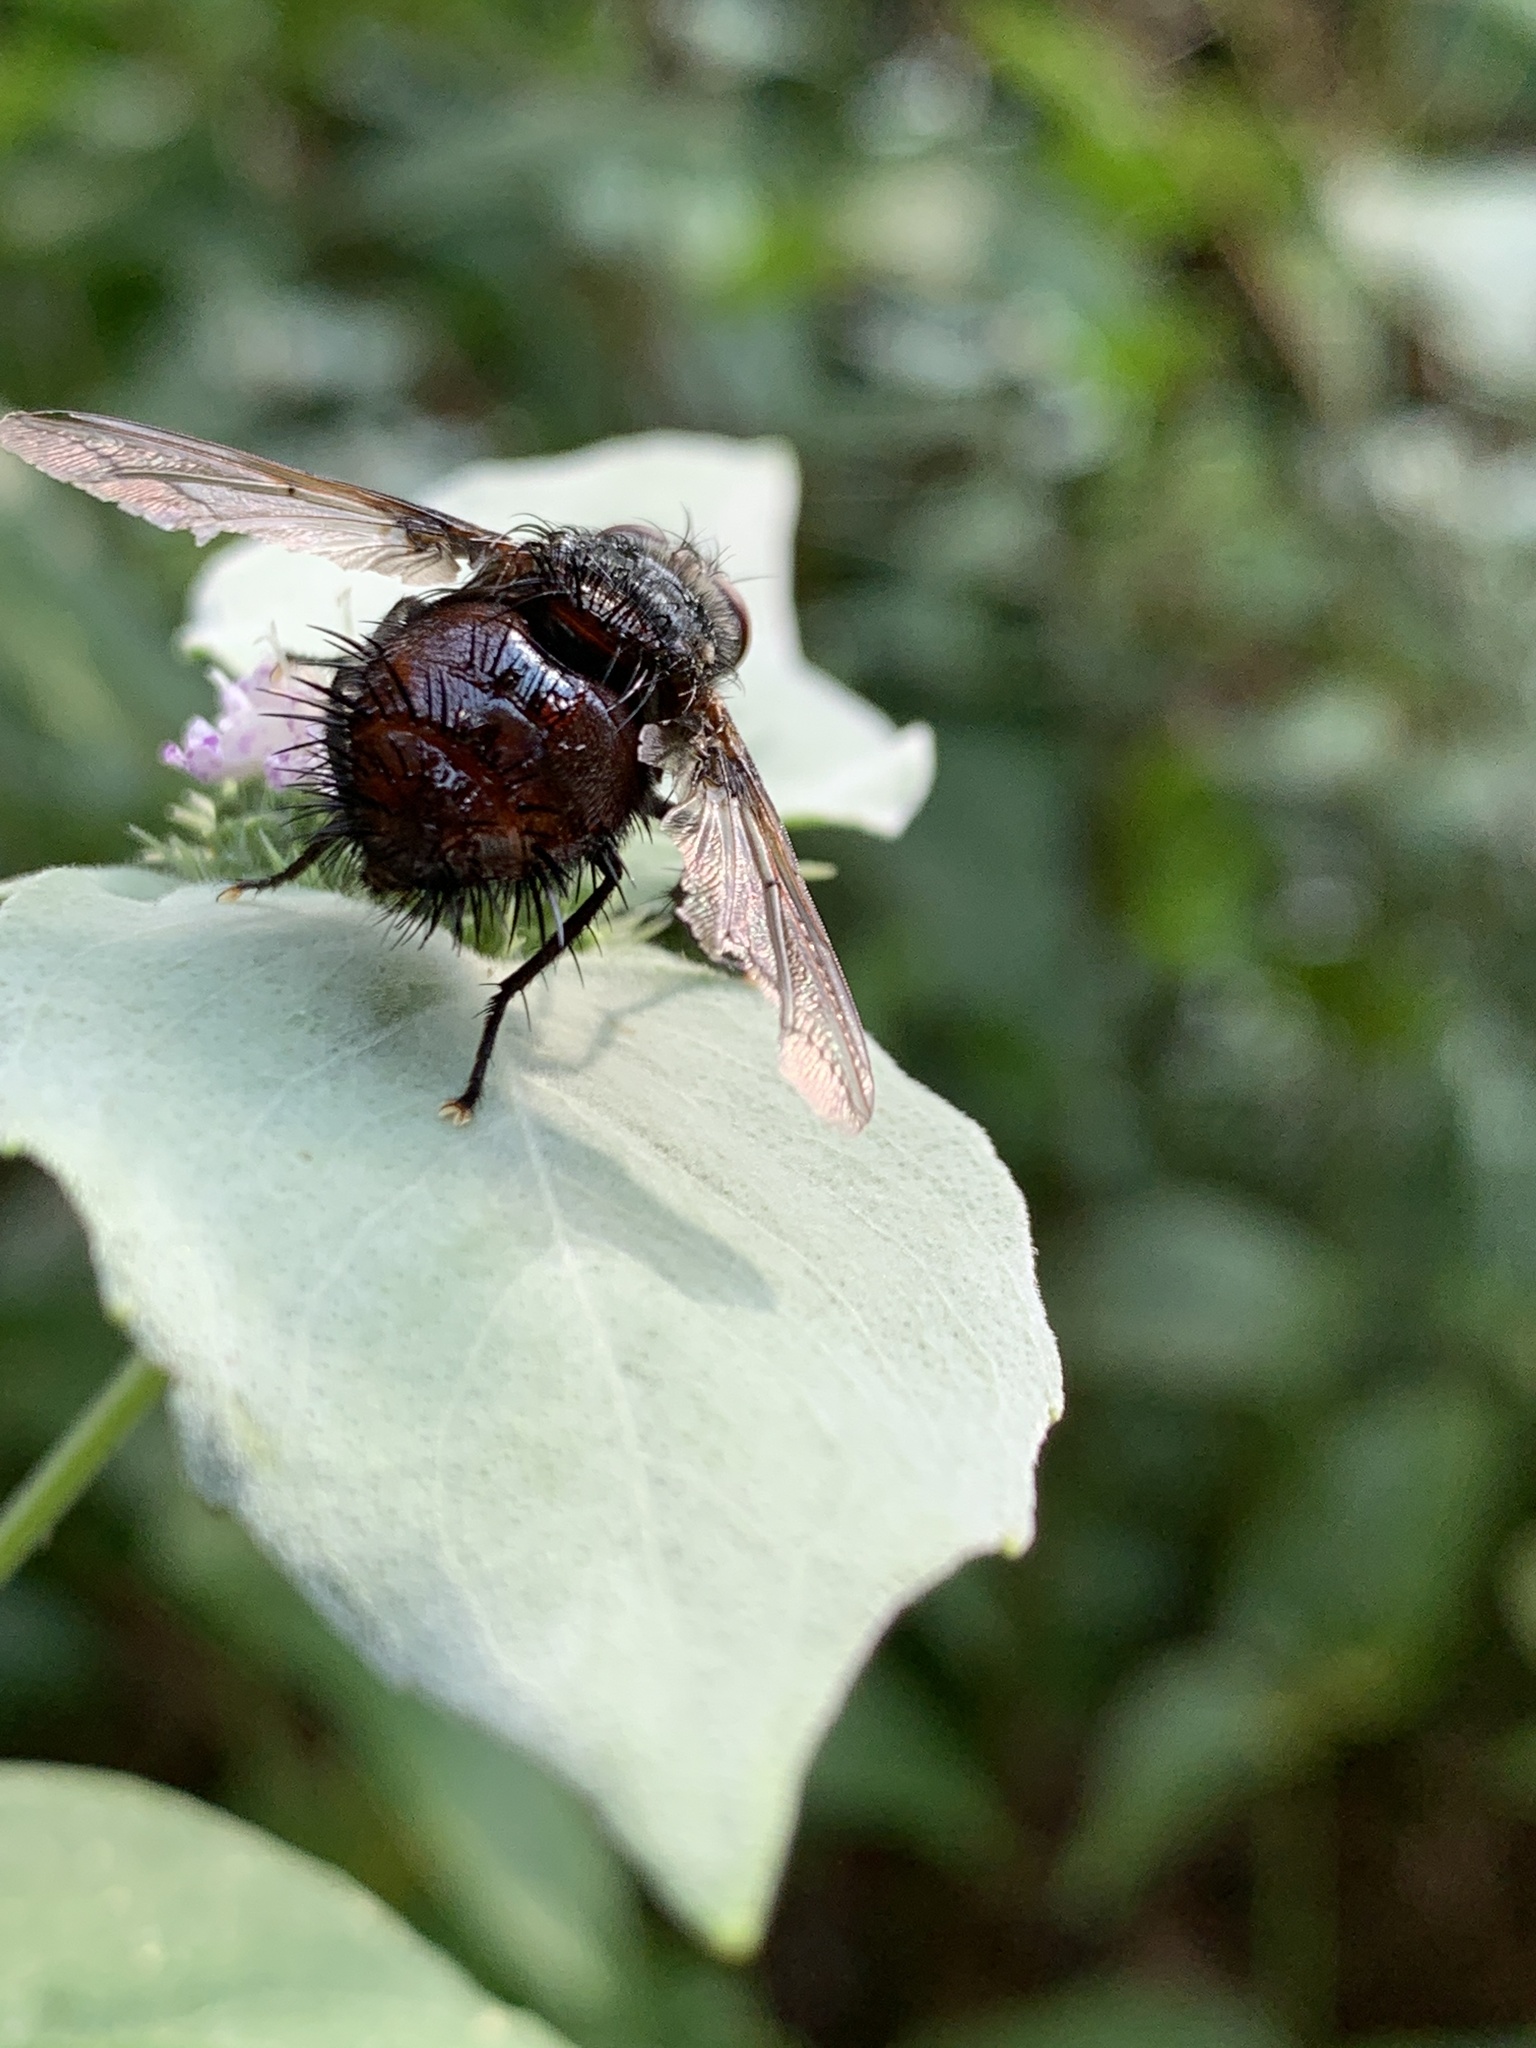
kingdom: Animalia
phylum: Arthropoda
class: Insecta
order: Diptera
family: Tachinidae
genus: Juriniopsis
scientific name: Juriniopsis adusta
